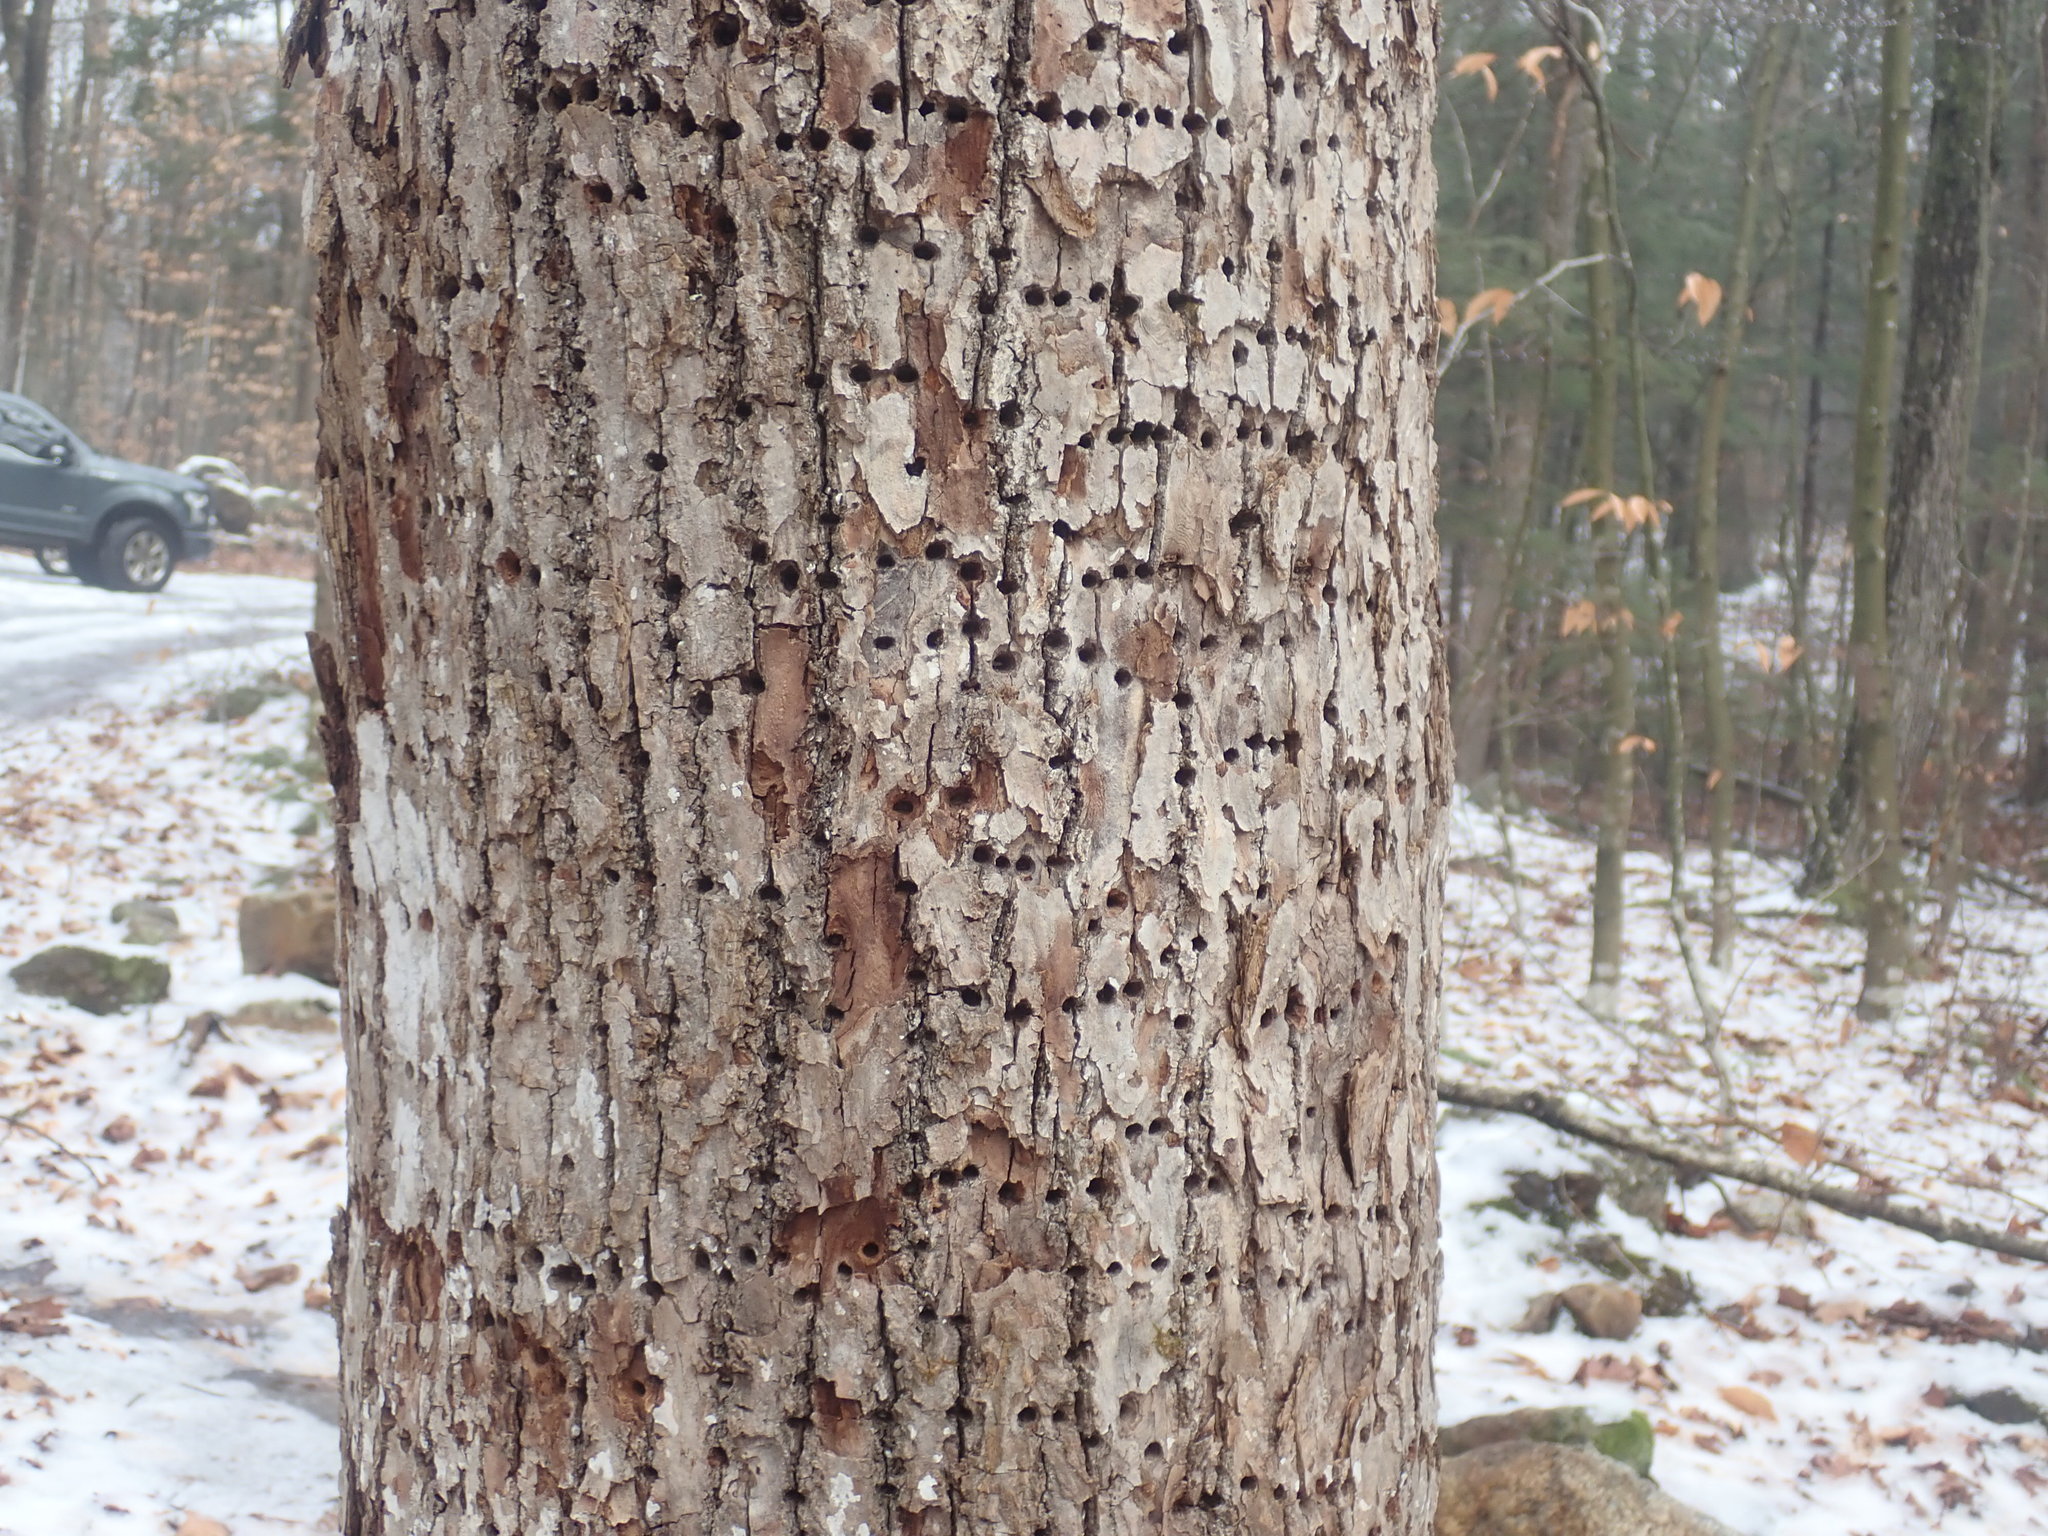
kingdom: Animalia
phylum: Chordata
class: Aves
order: Piciformes
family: Picidae
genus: Sphyrapicus
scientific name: Sphyrapicus varius
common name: Yellow-bellied sapsucker
